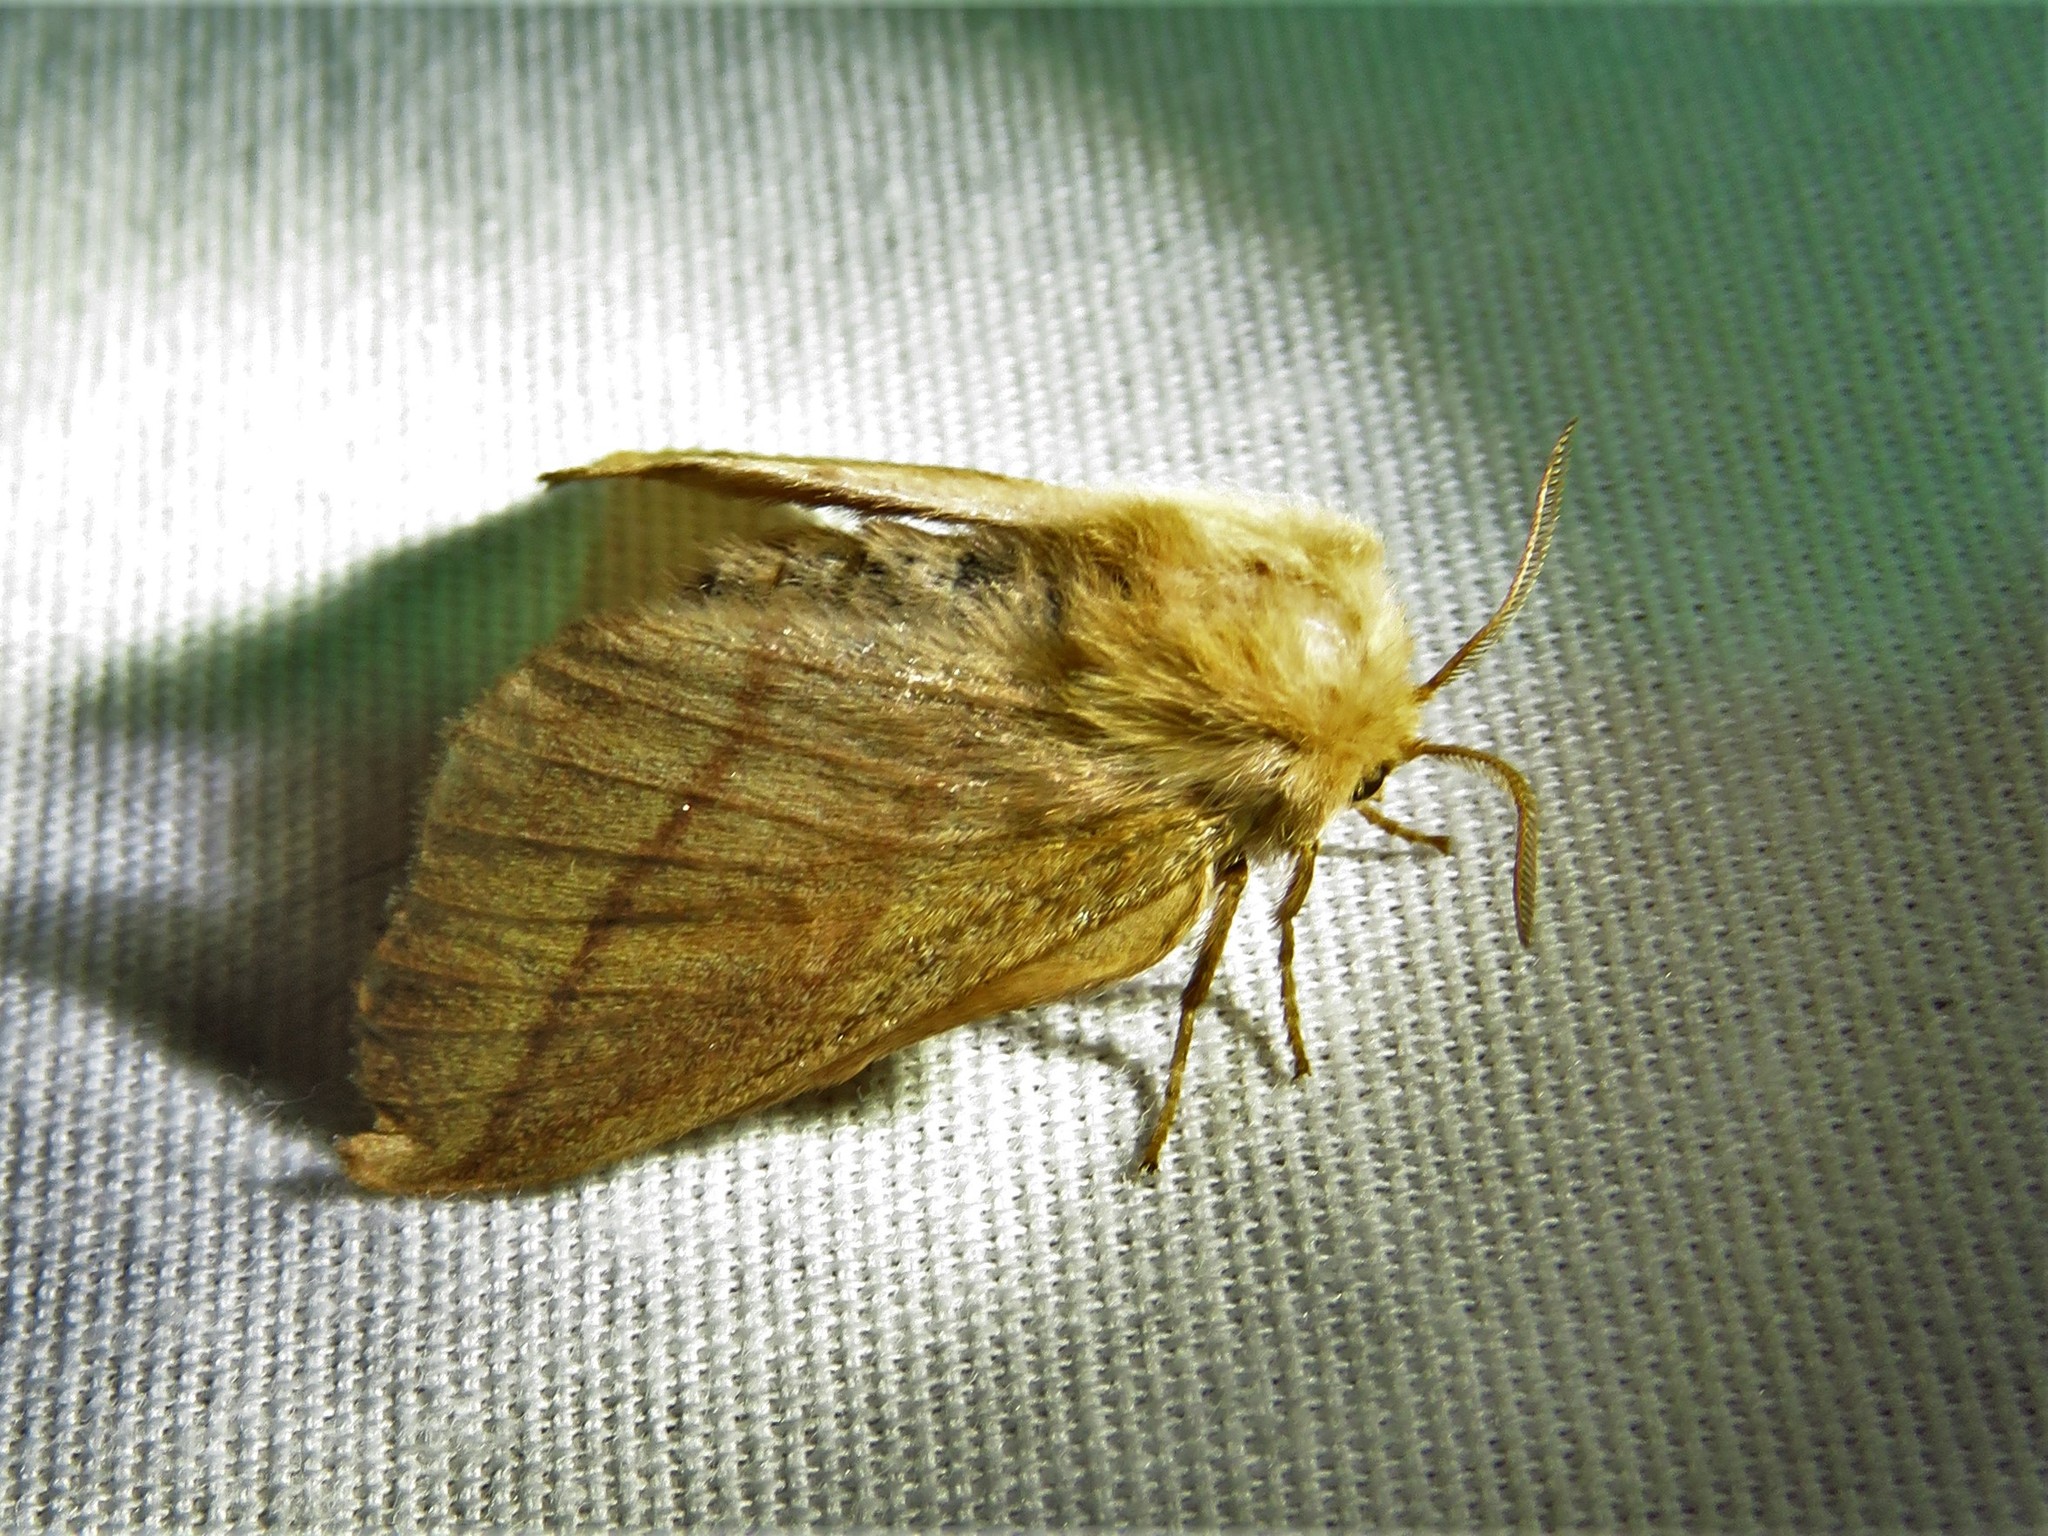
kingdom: Animalia
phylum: Arthropoda
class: Insecta
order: Lepidoptera
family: Lasiocampidae
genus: Malacosoma
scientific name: Malacosoma disstria
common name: Forest tent caterpillar
